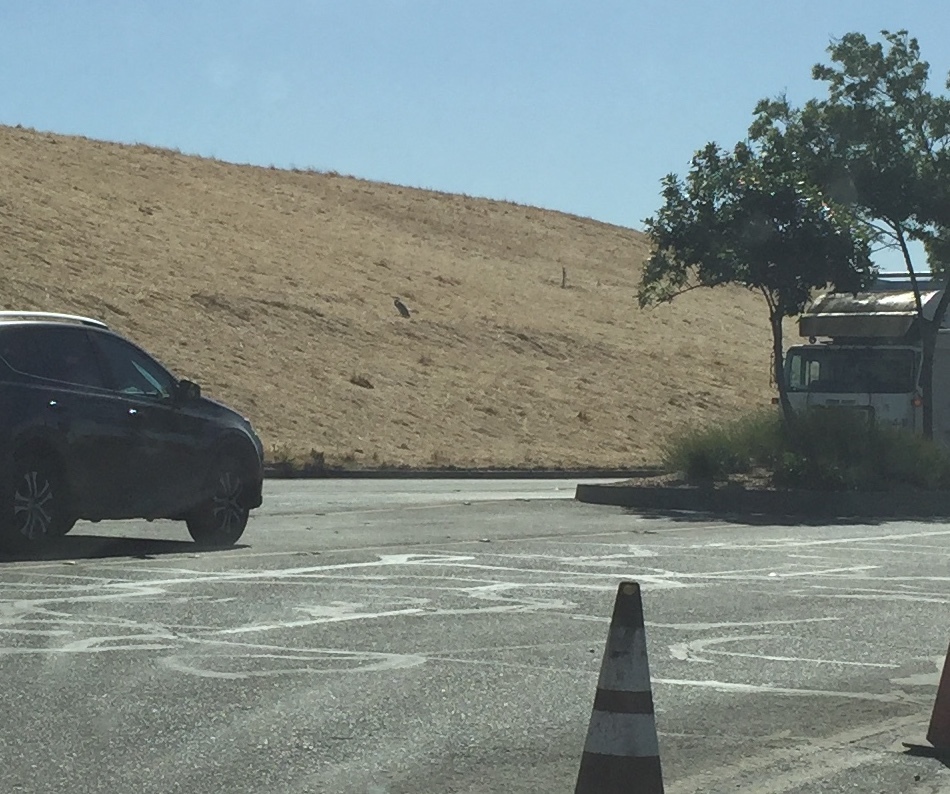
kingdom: Animalia
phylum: Chordata
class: Aves
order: Pelecaniformes
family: Ardeidae
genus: Ardea
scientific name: Ardea herodias
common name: Great blue heron
